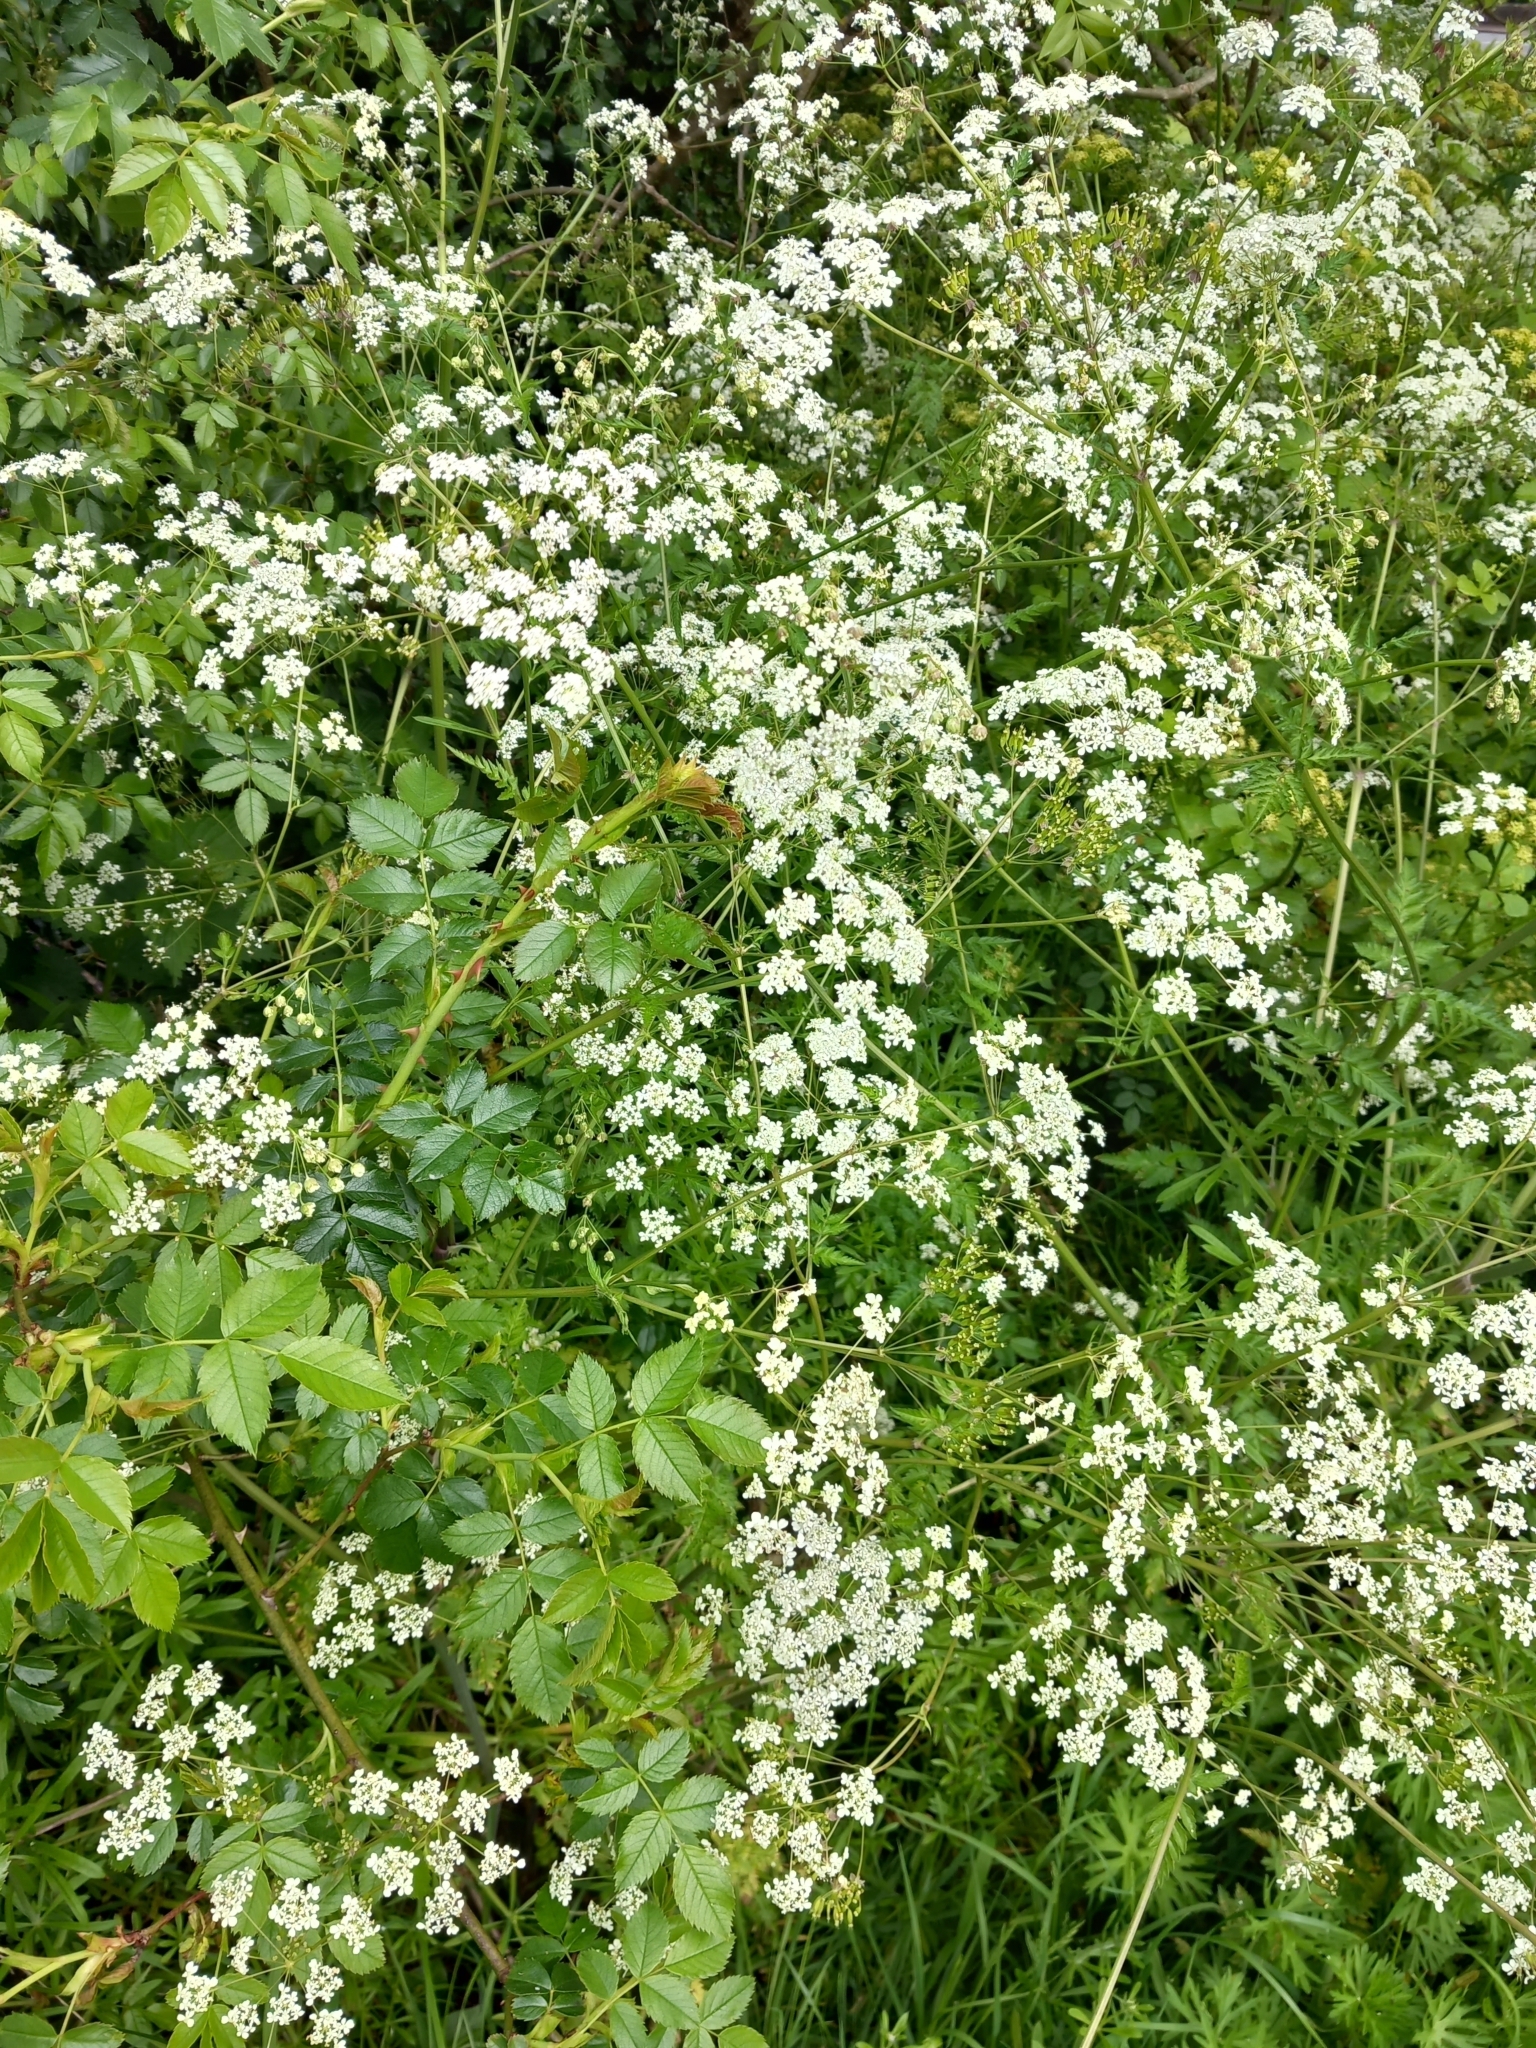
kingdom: Plantae
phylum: Tracheophyta
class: Magnoliopsida
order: Apiales
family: Apiaceae
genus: Anthriscus
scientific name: Anthriscus sylvestris
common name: Cow parsley
